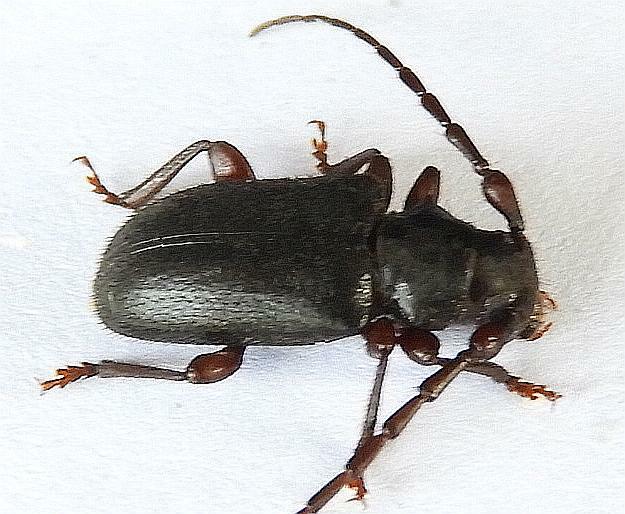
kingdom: Animalia
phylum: Arthropoda
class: Insecta
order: Coleoptera
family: Cerambycidae
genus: Peritapnia
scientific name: Peritapnia fabra
